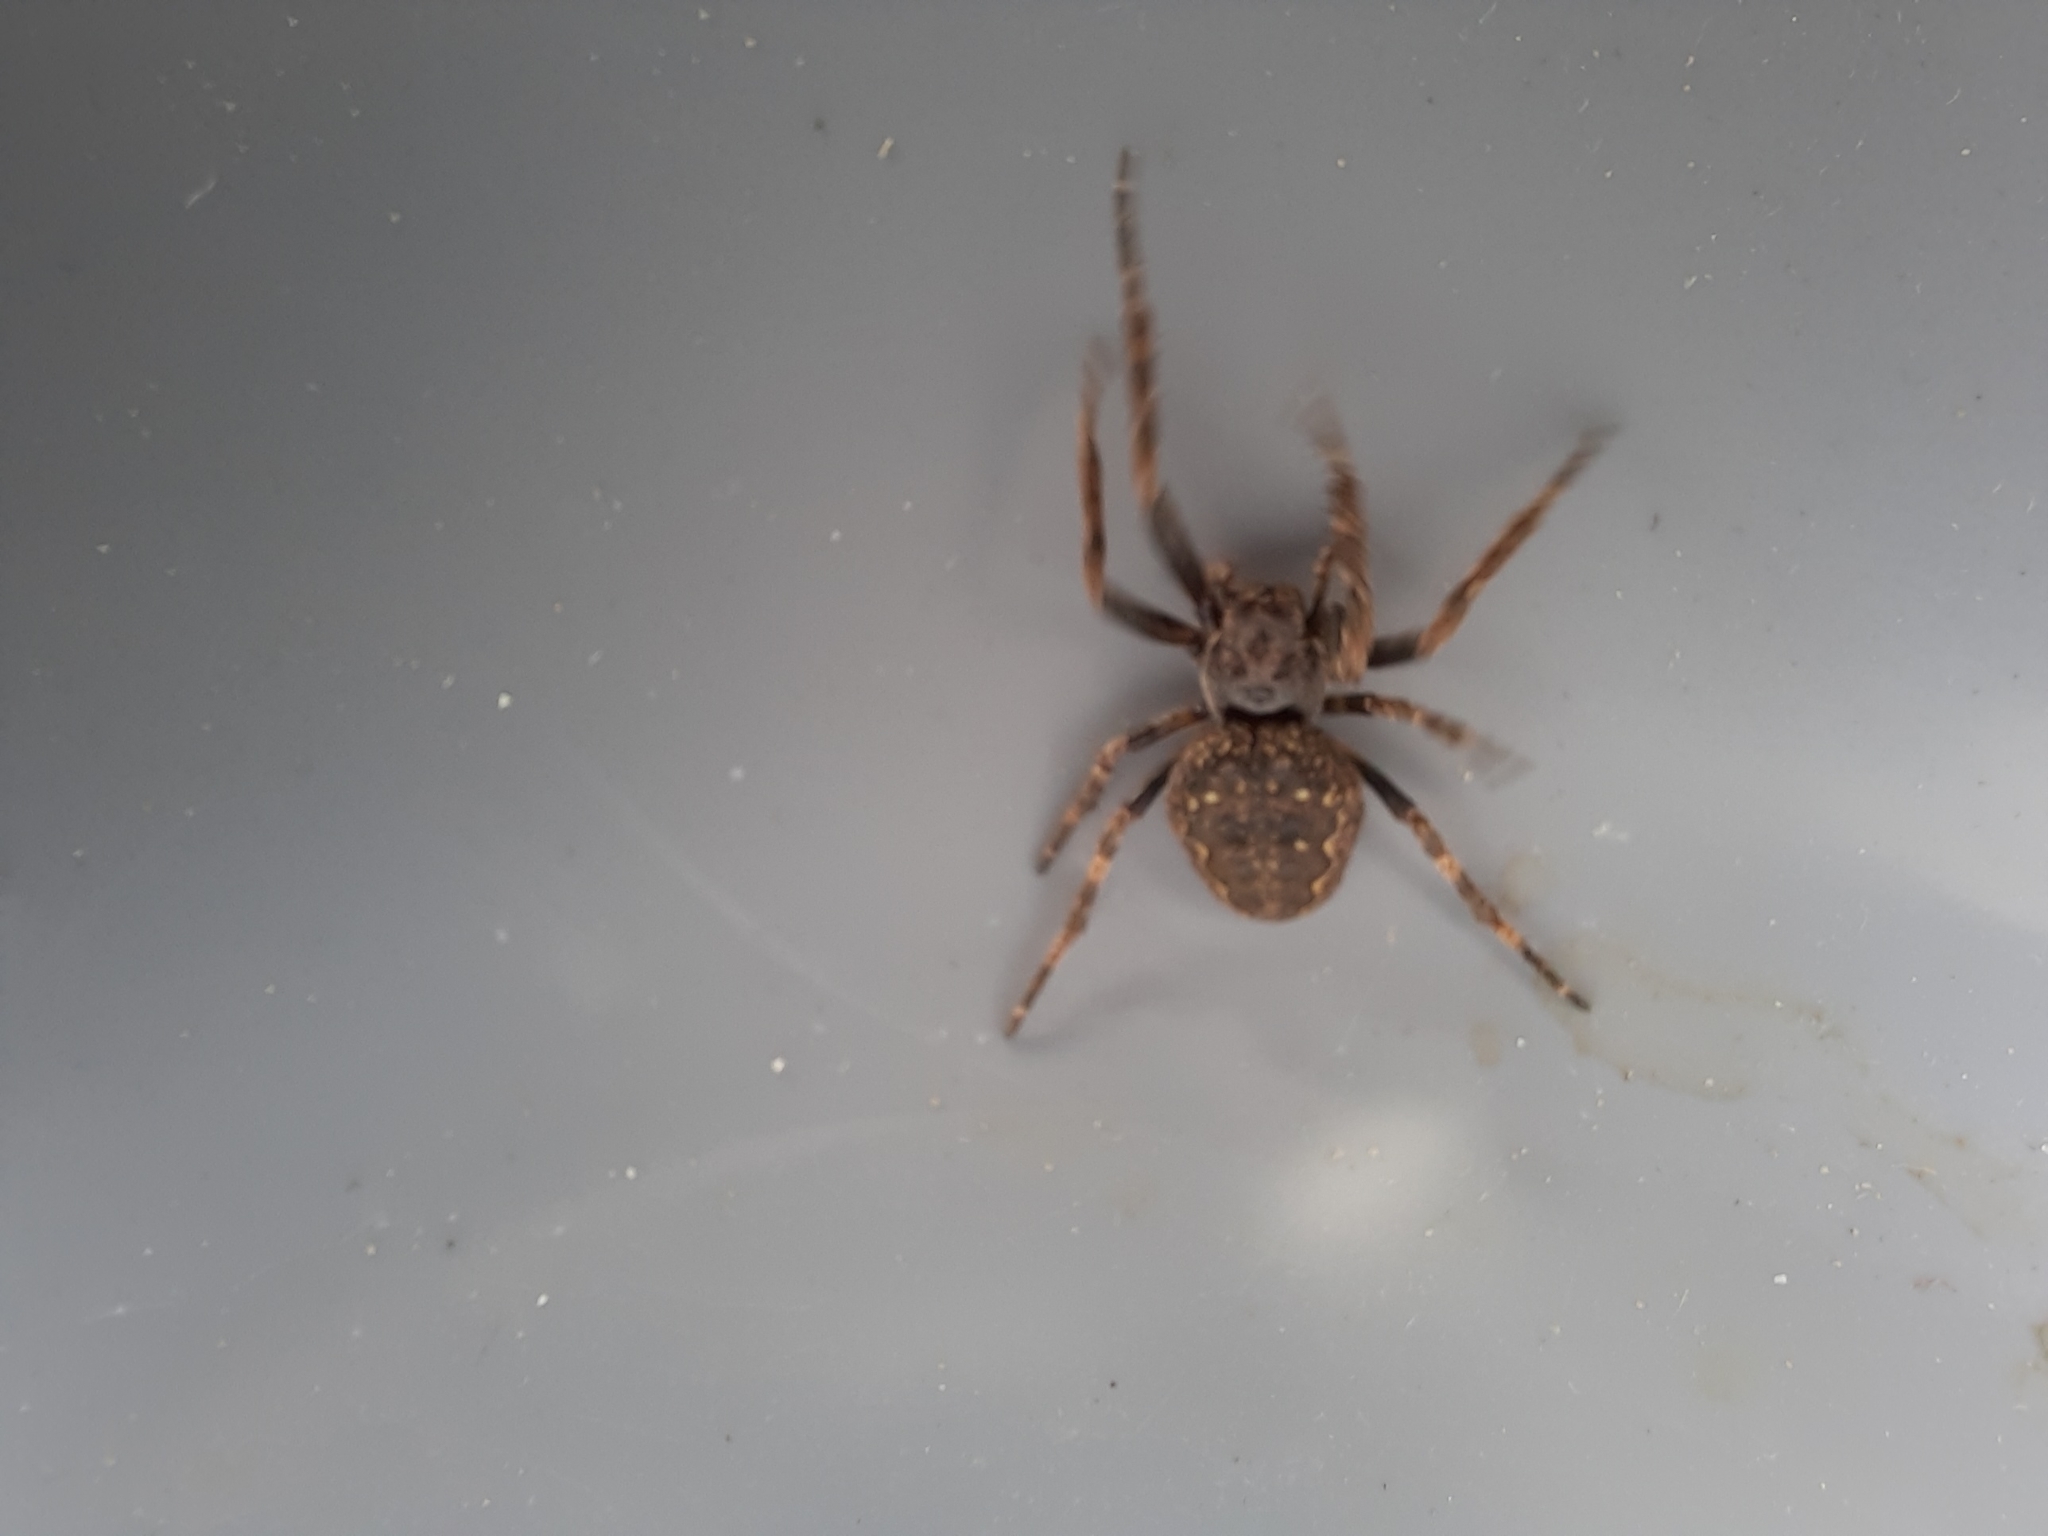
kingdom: Animalia
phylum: Arthropoda
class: Arachnida
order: Araneae
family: Araneidae
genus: Nuctenea
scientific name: Nuctenea umbratica
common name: Toad spider
